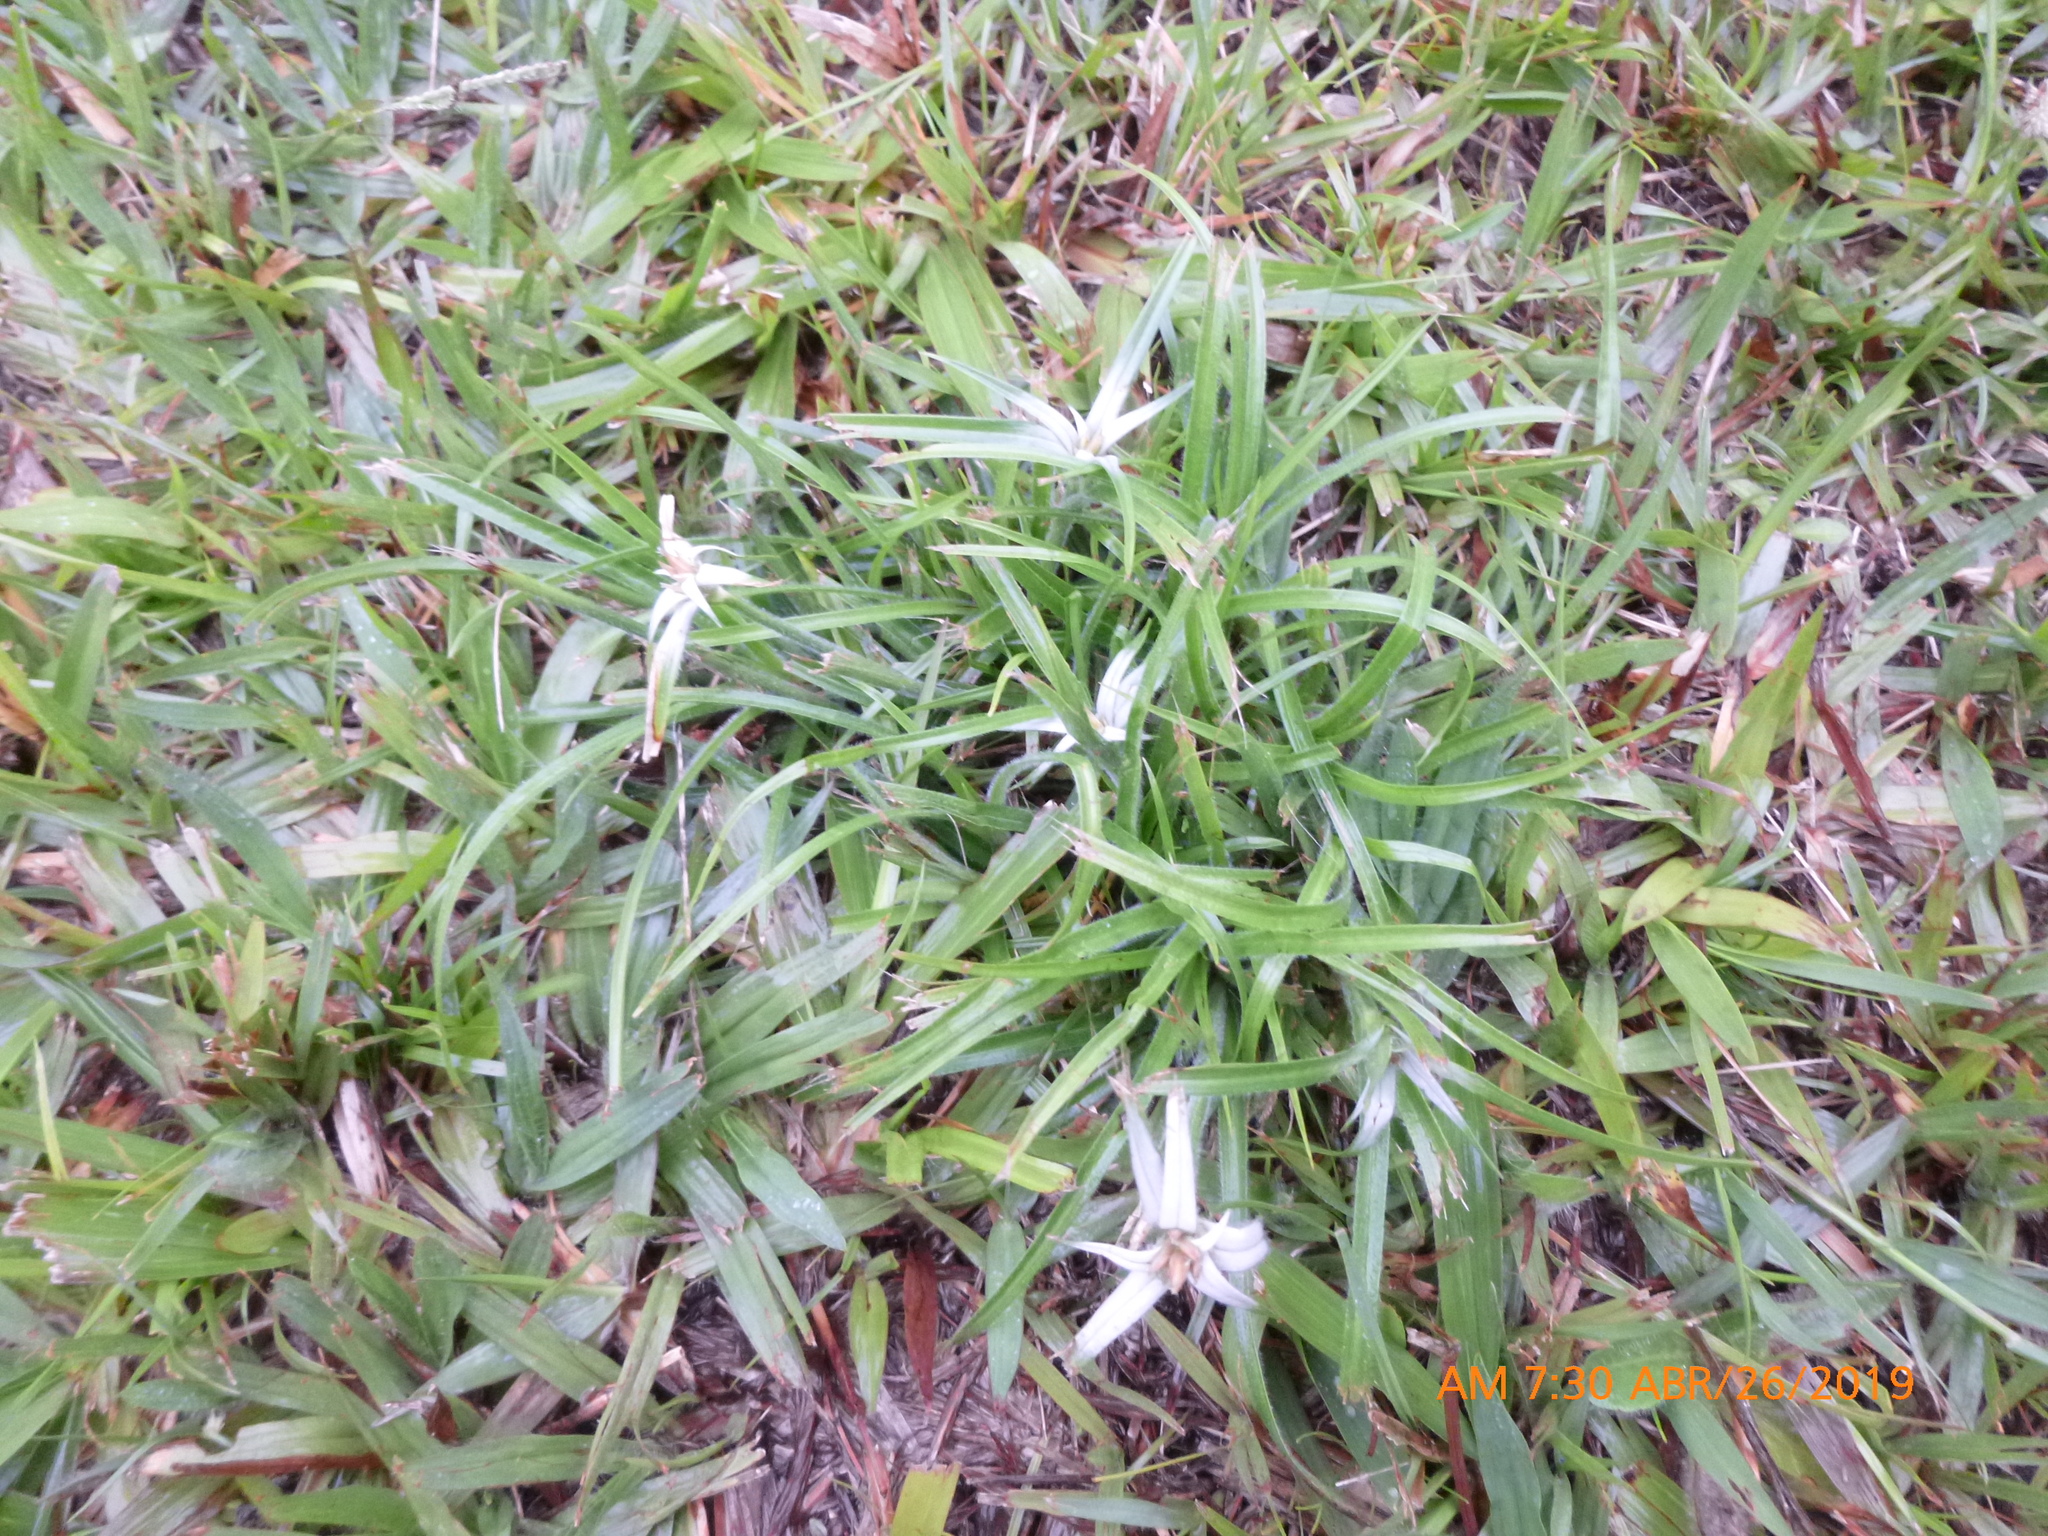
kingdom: Plantae
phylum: Tracheophyta
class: Liliopsida
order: Poales
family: Cyperaceae
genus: Rhynchospora
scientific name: Rhynchospora nervosa
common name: Star sedge
